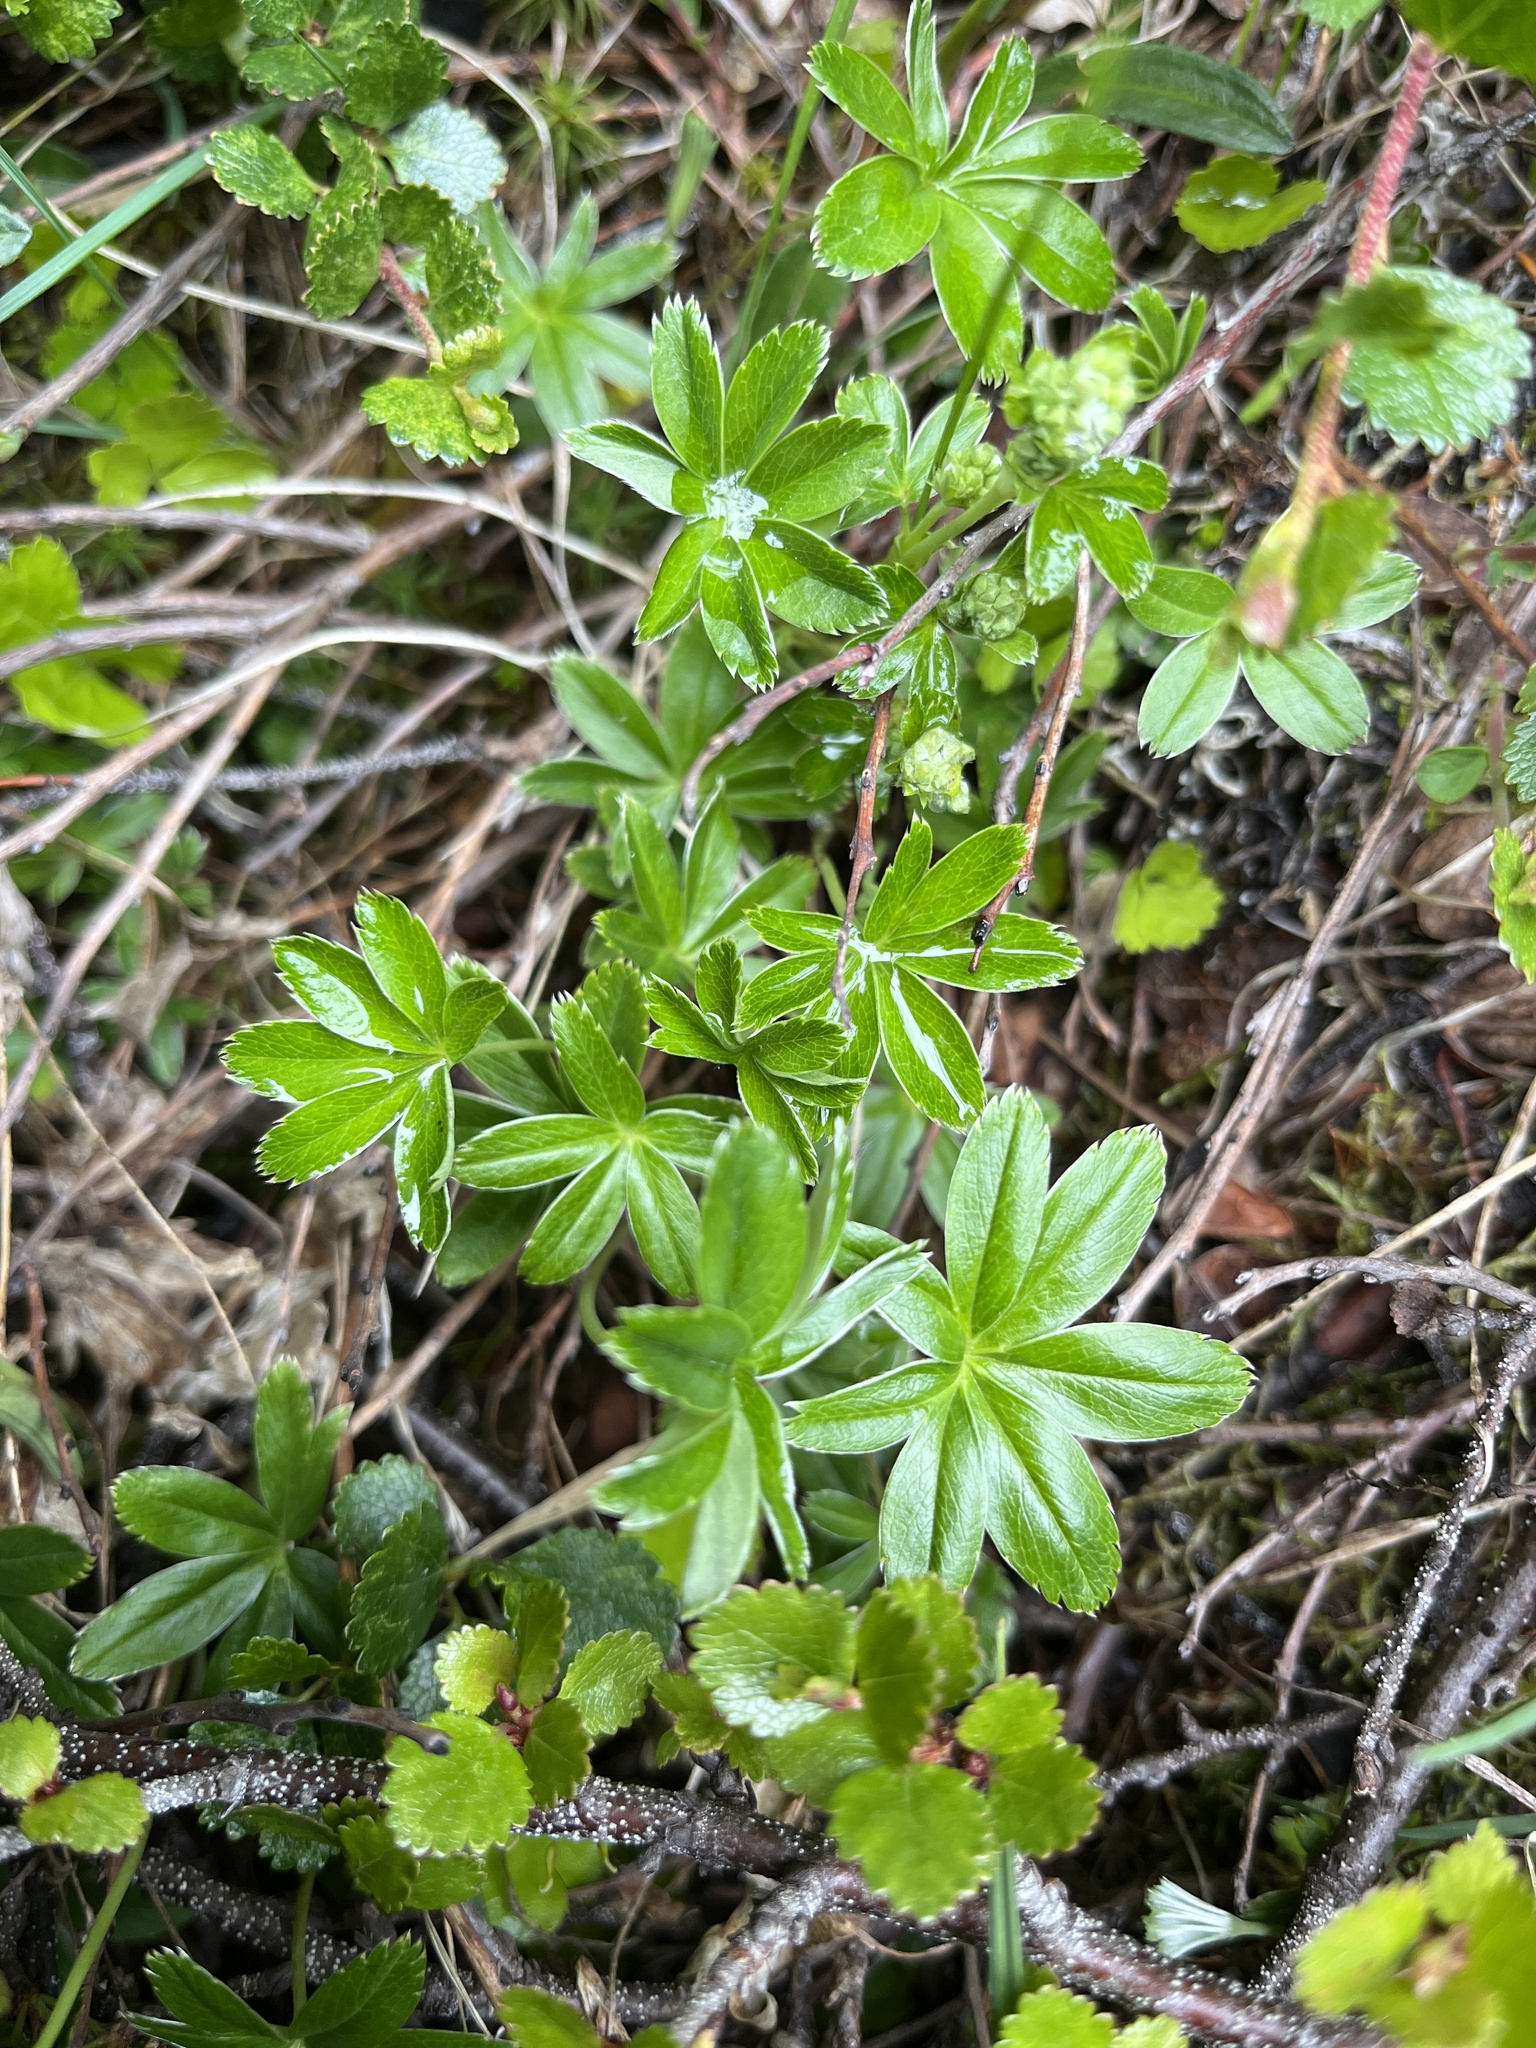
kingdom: Plantae
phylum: Tracheophyta
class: Magnoliopsida
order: Rosales
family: Rosaceae
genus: Alchemilla
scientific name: Alchemilla alpina
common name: Alpine lady's-mantle
